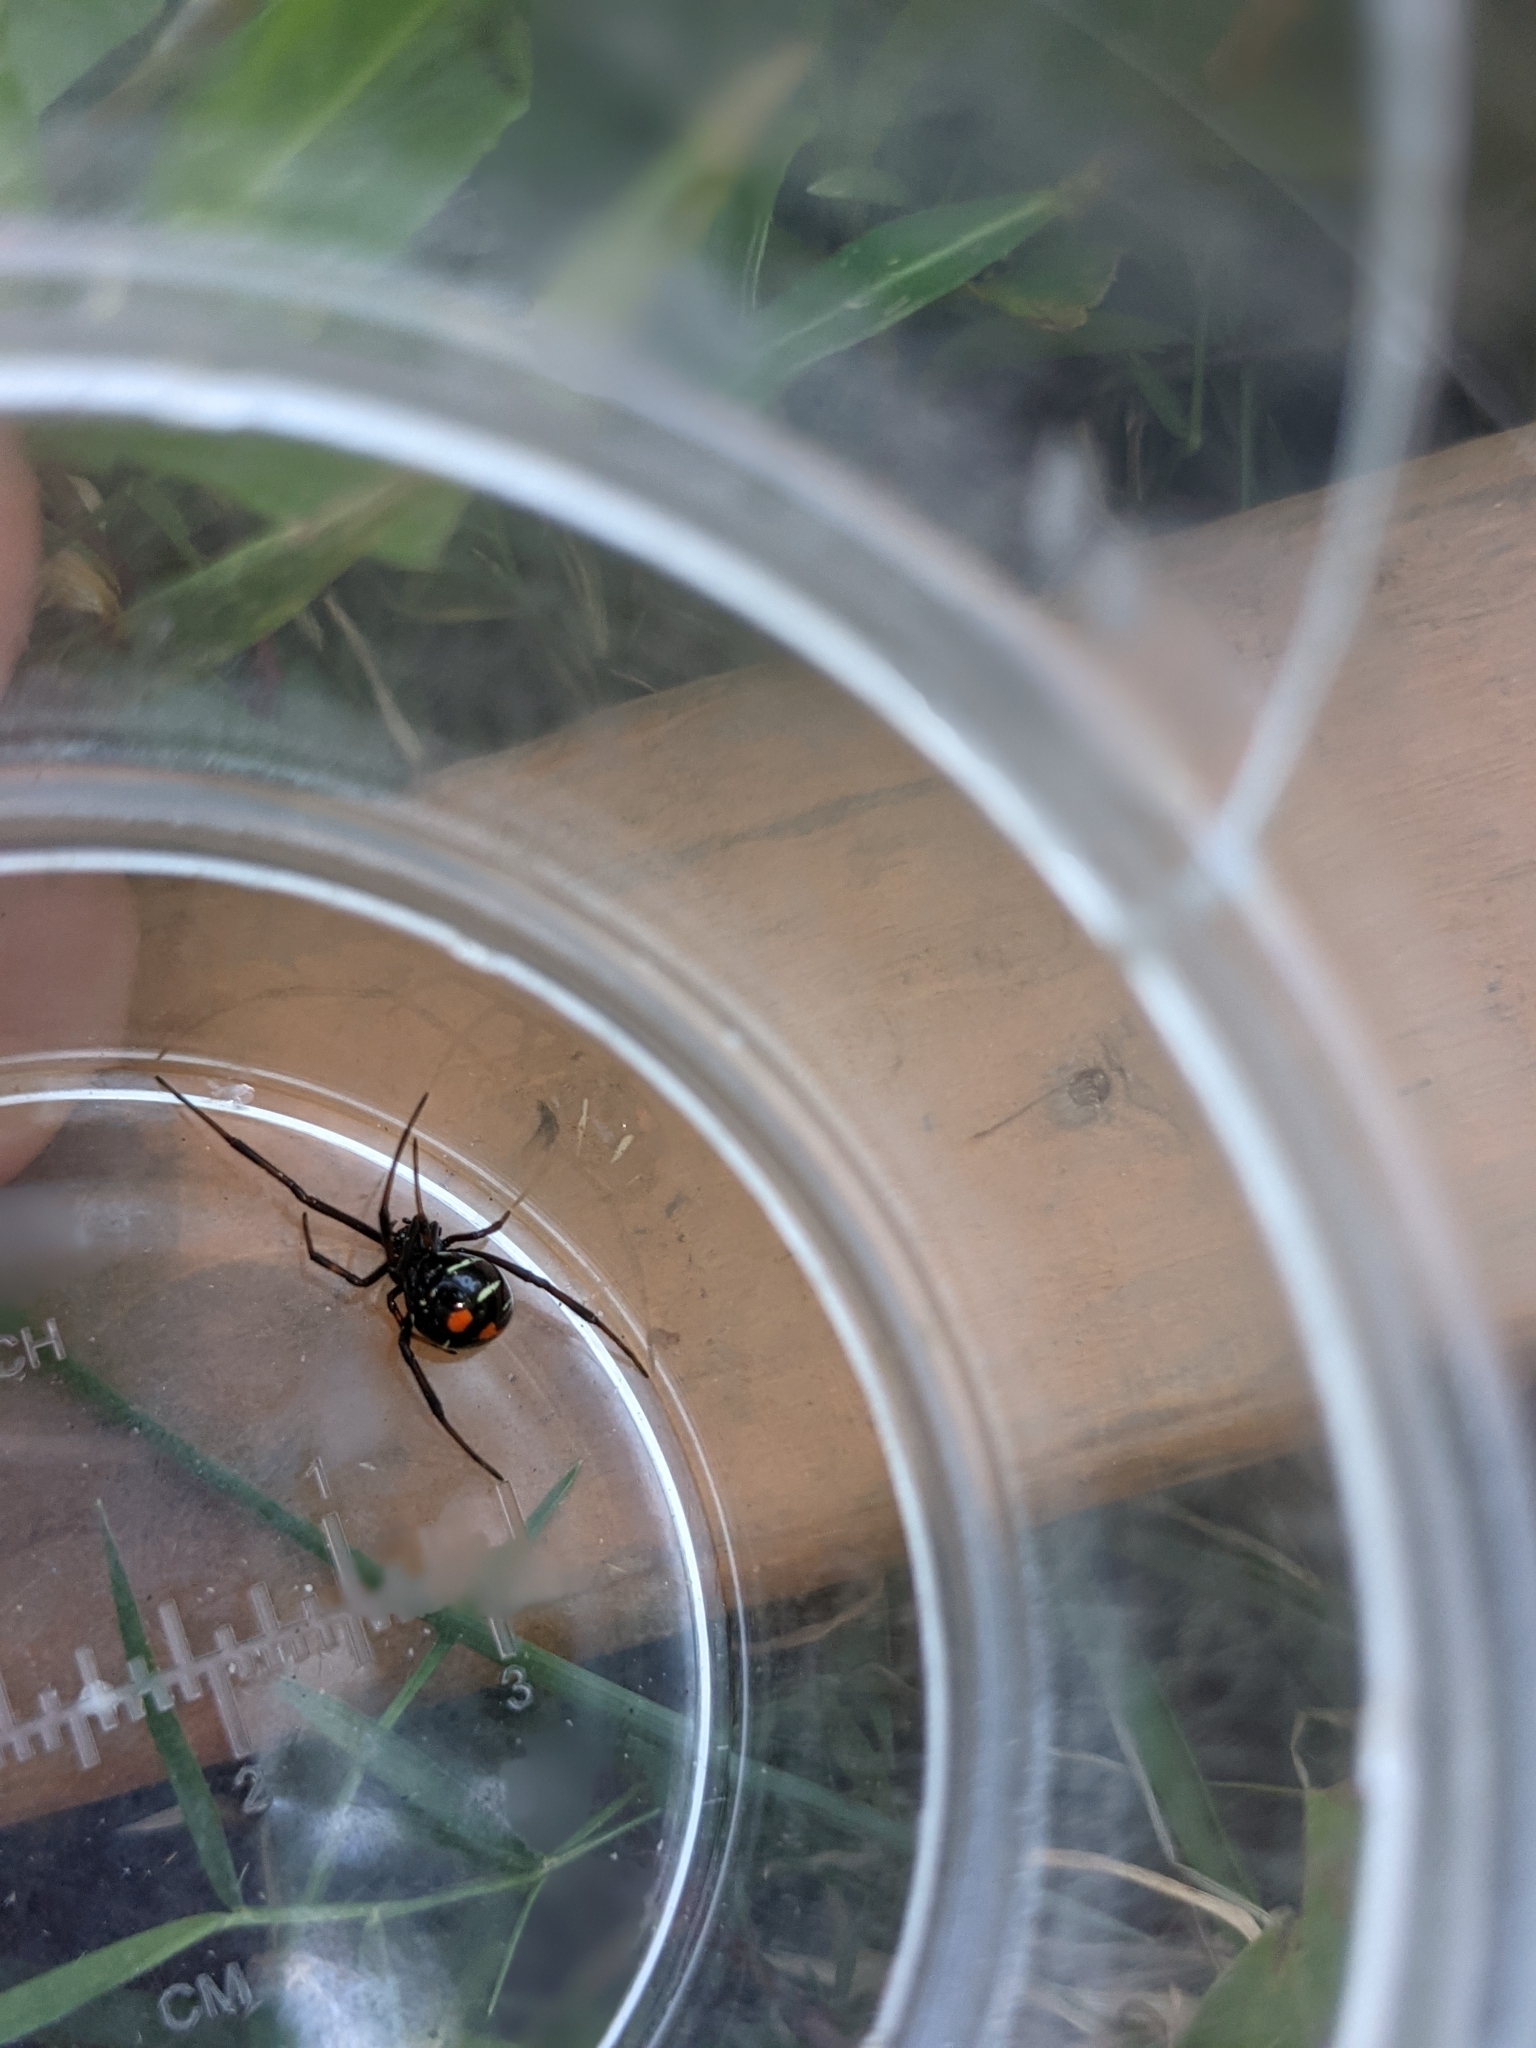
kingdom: Animalia
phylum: Arthropoda
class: Arachnida
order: Araneae
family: Theridiidae
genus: Latrodectus
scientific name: Latrodectus variolus
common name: Northern black widow
